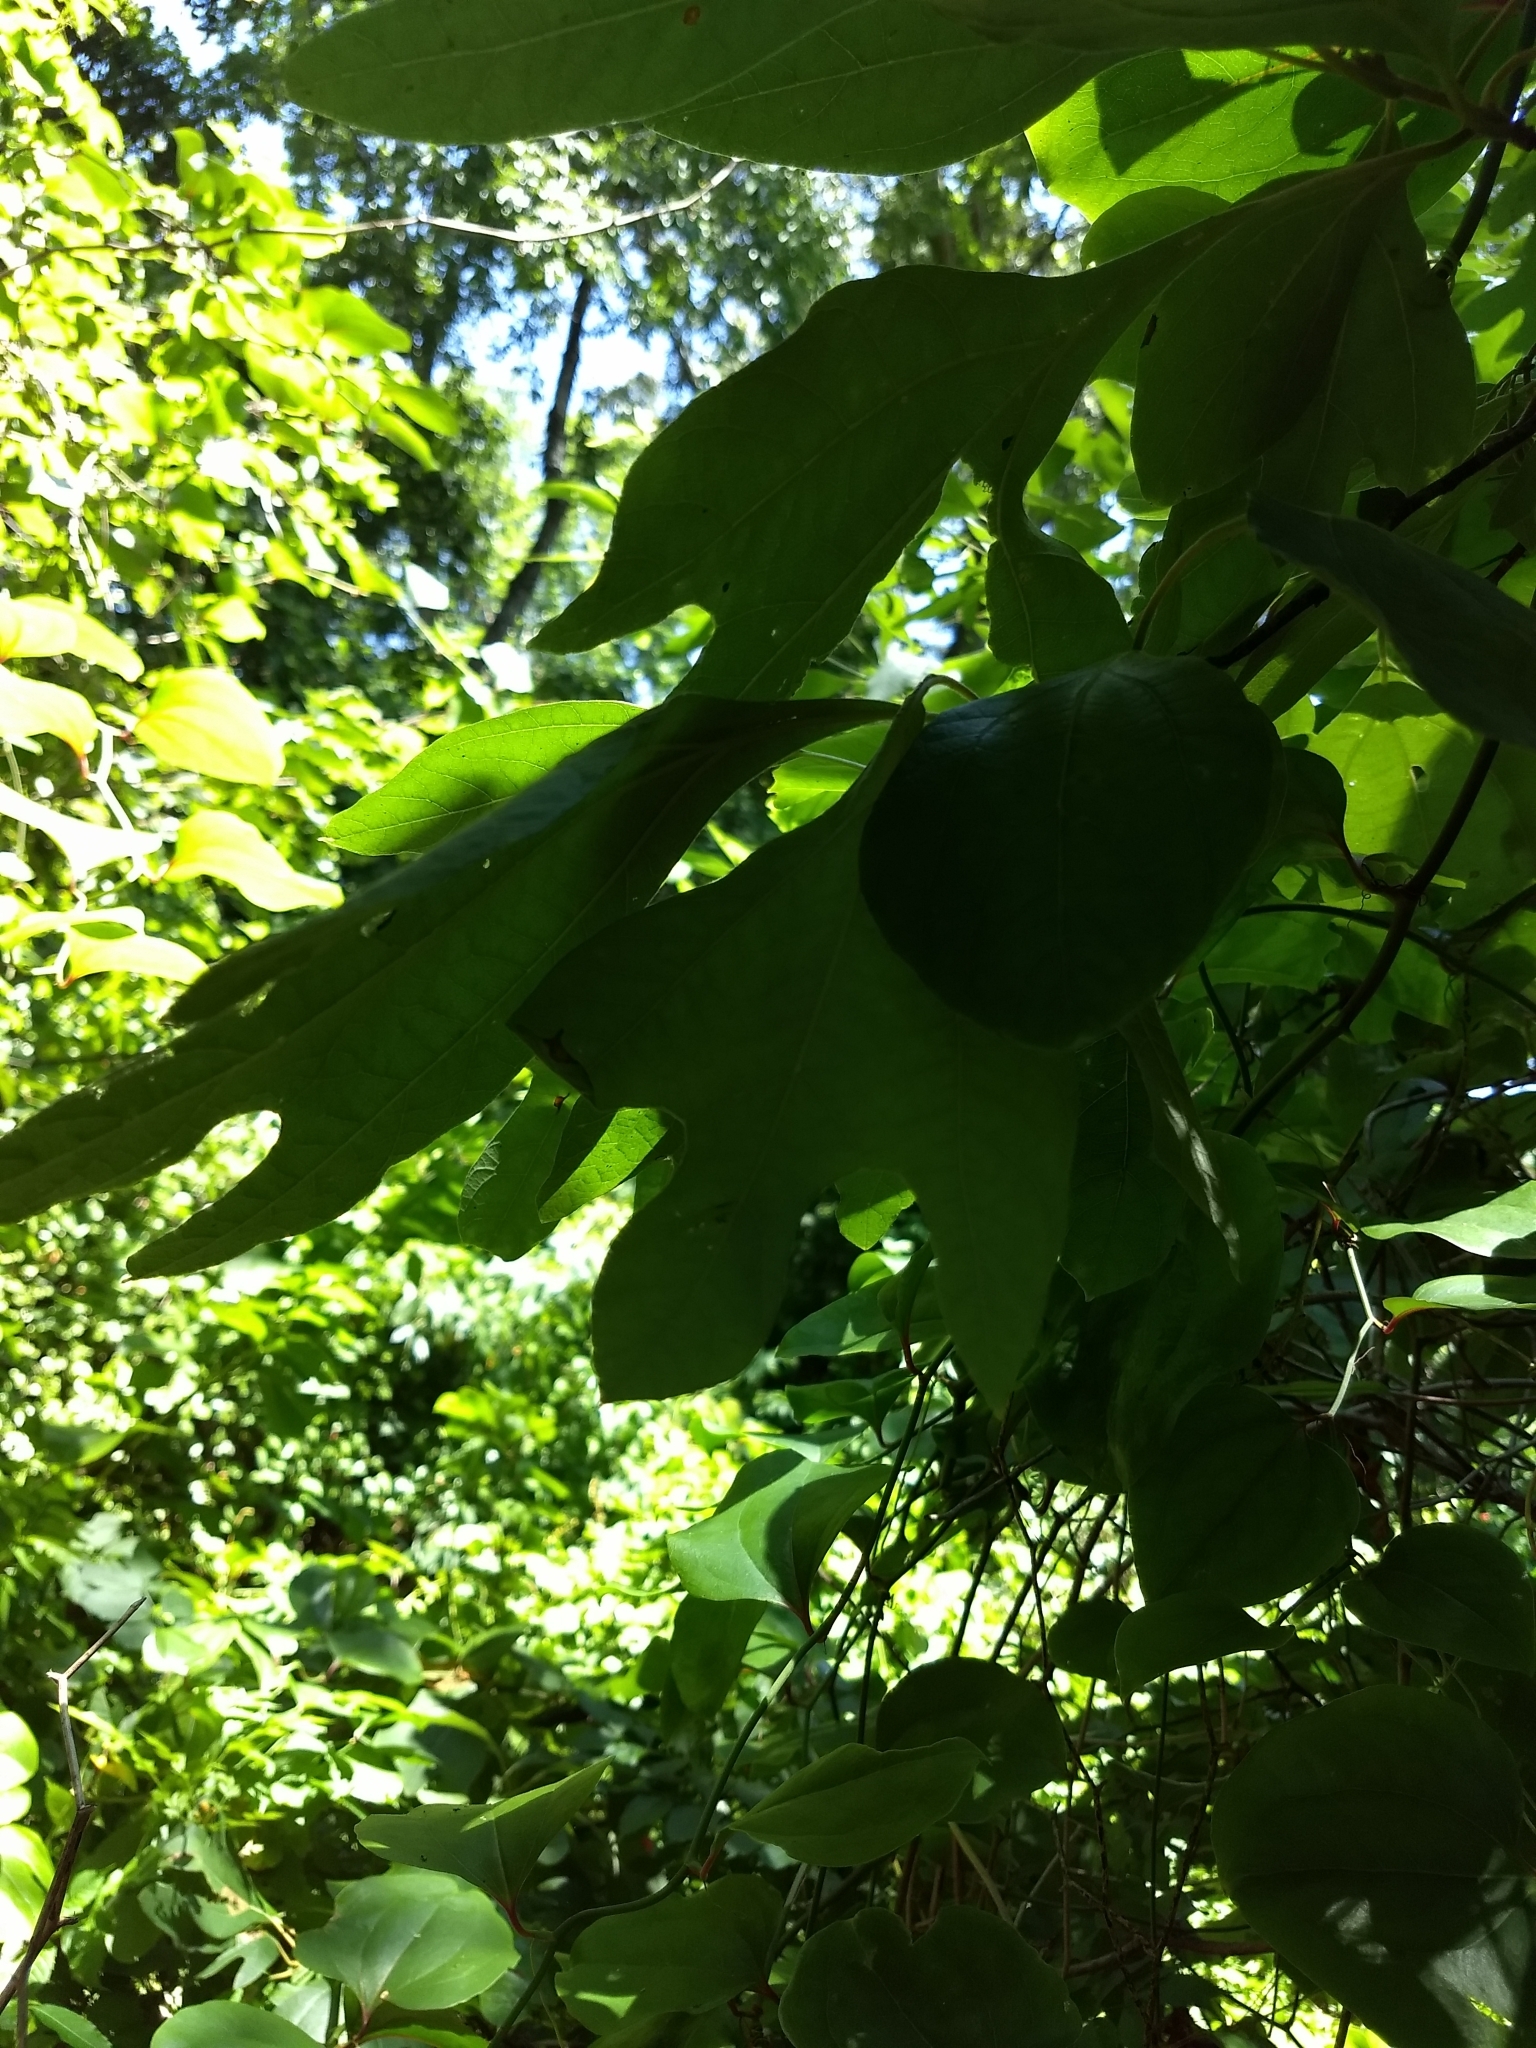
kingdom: Plantae
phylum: Tracheophyta
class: Magnoliopsida
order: Laurales
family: Lauraceae
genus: Sassafras
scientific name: Sassafras albidum
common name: Sassafras
